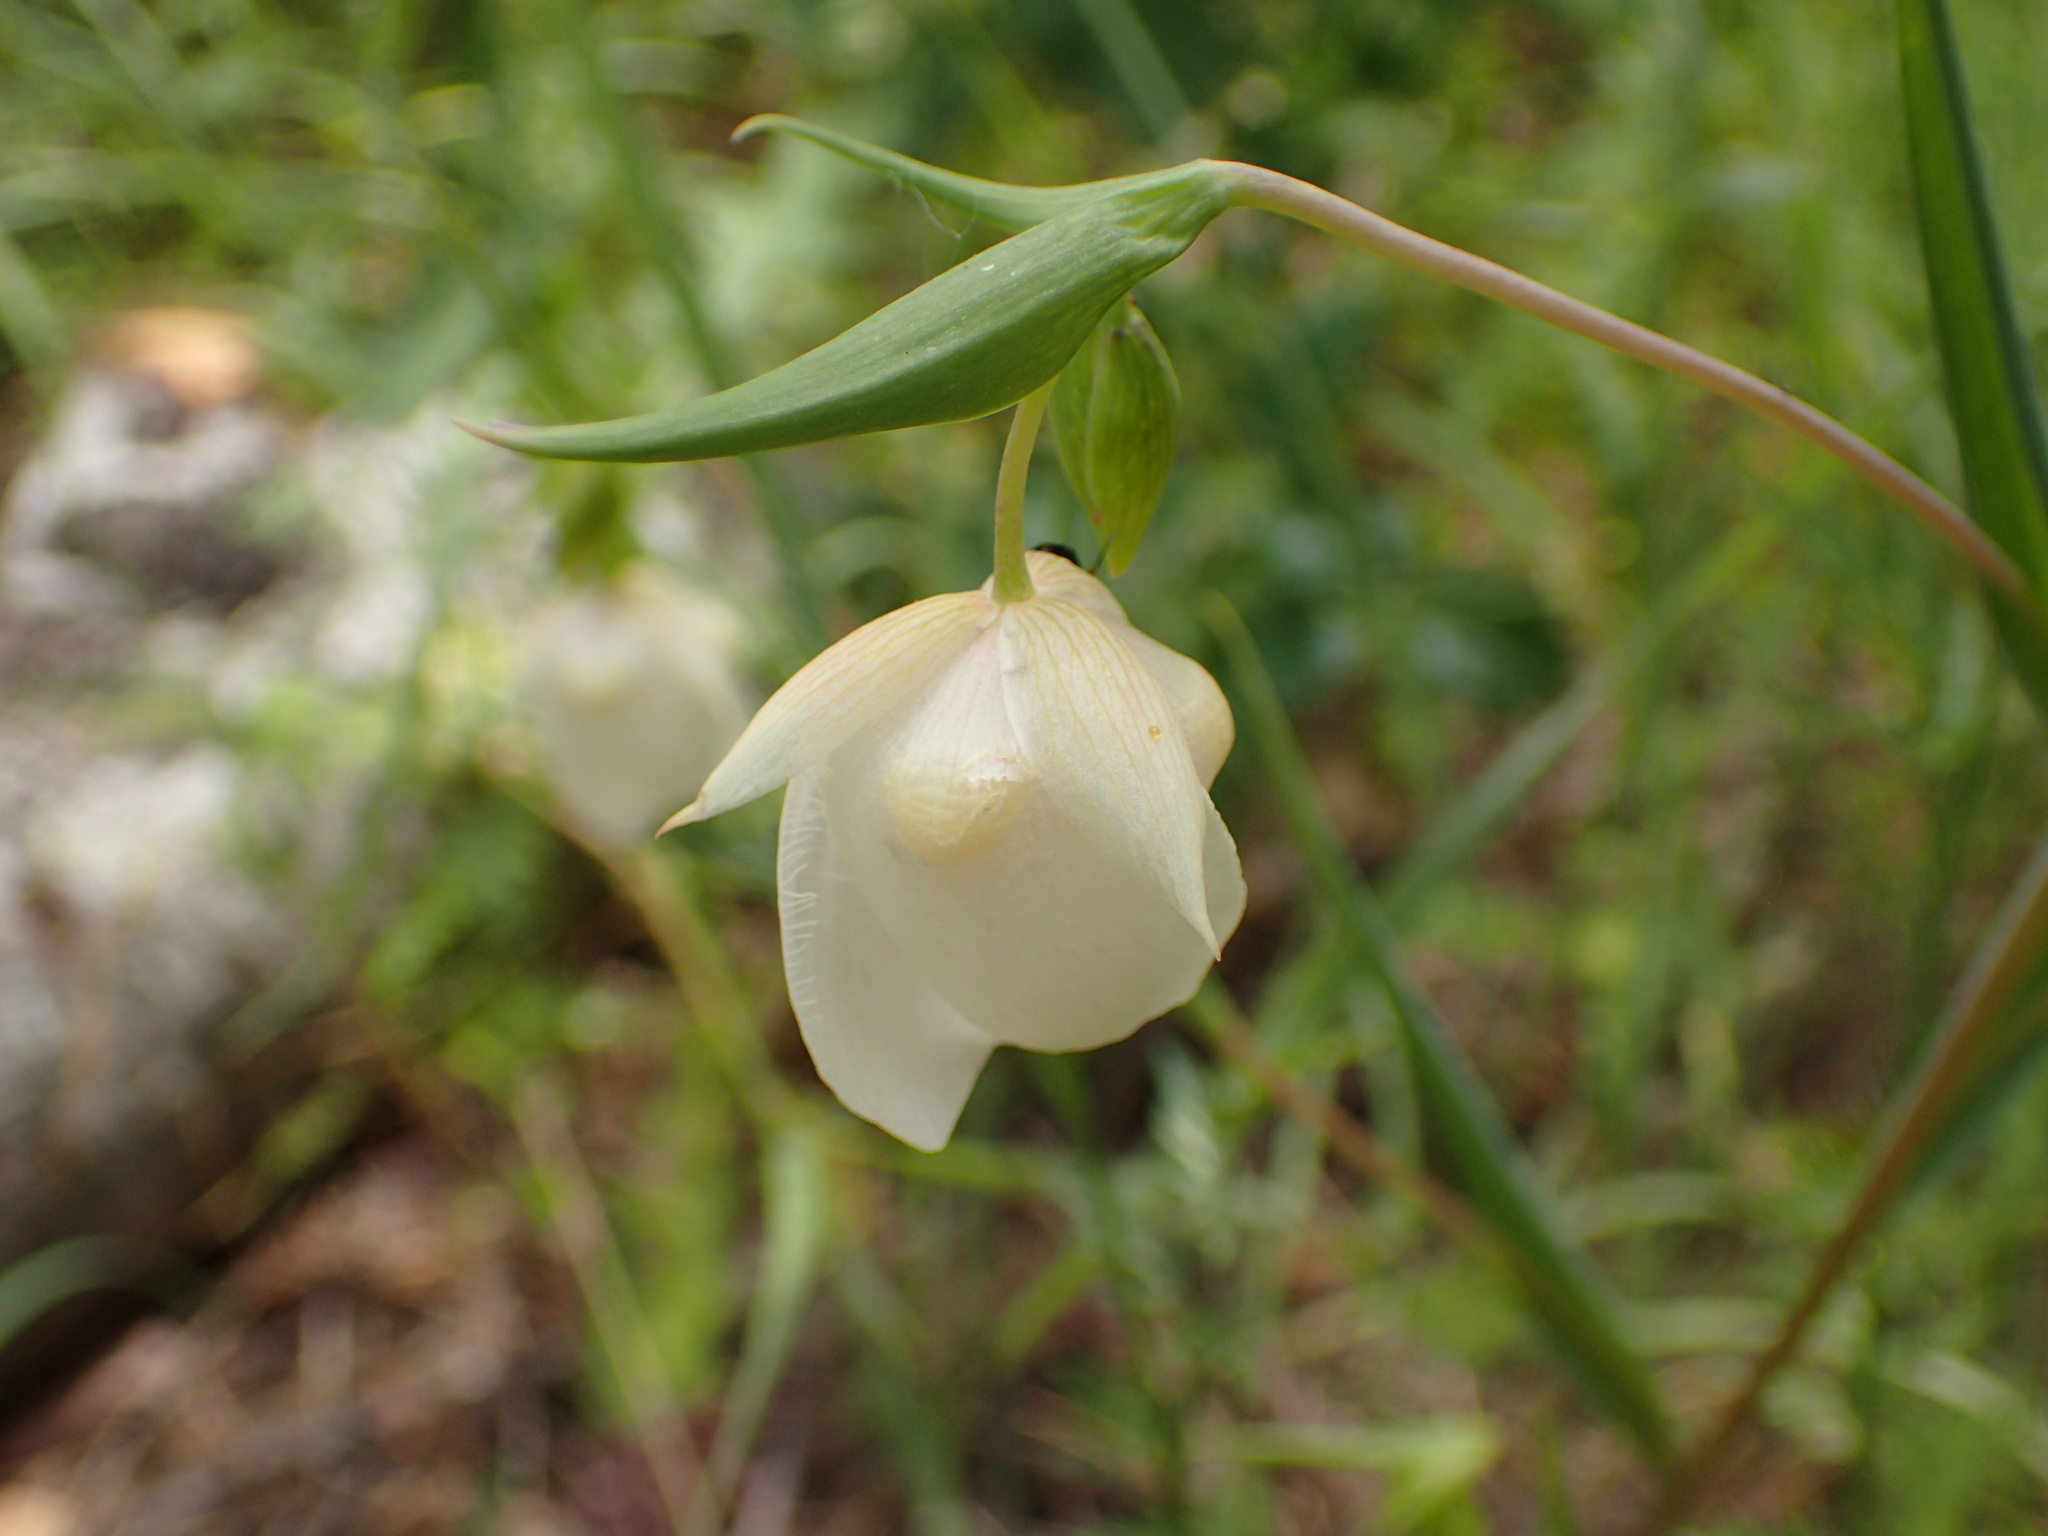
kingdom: Plantae
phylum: Tracheophyta
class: Liliopsida
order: Liliales
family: Liliaceae
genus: Calochortus
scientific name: Calochortus albus
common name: Fairy-lantern
